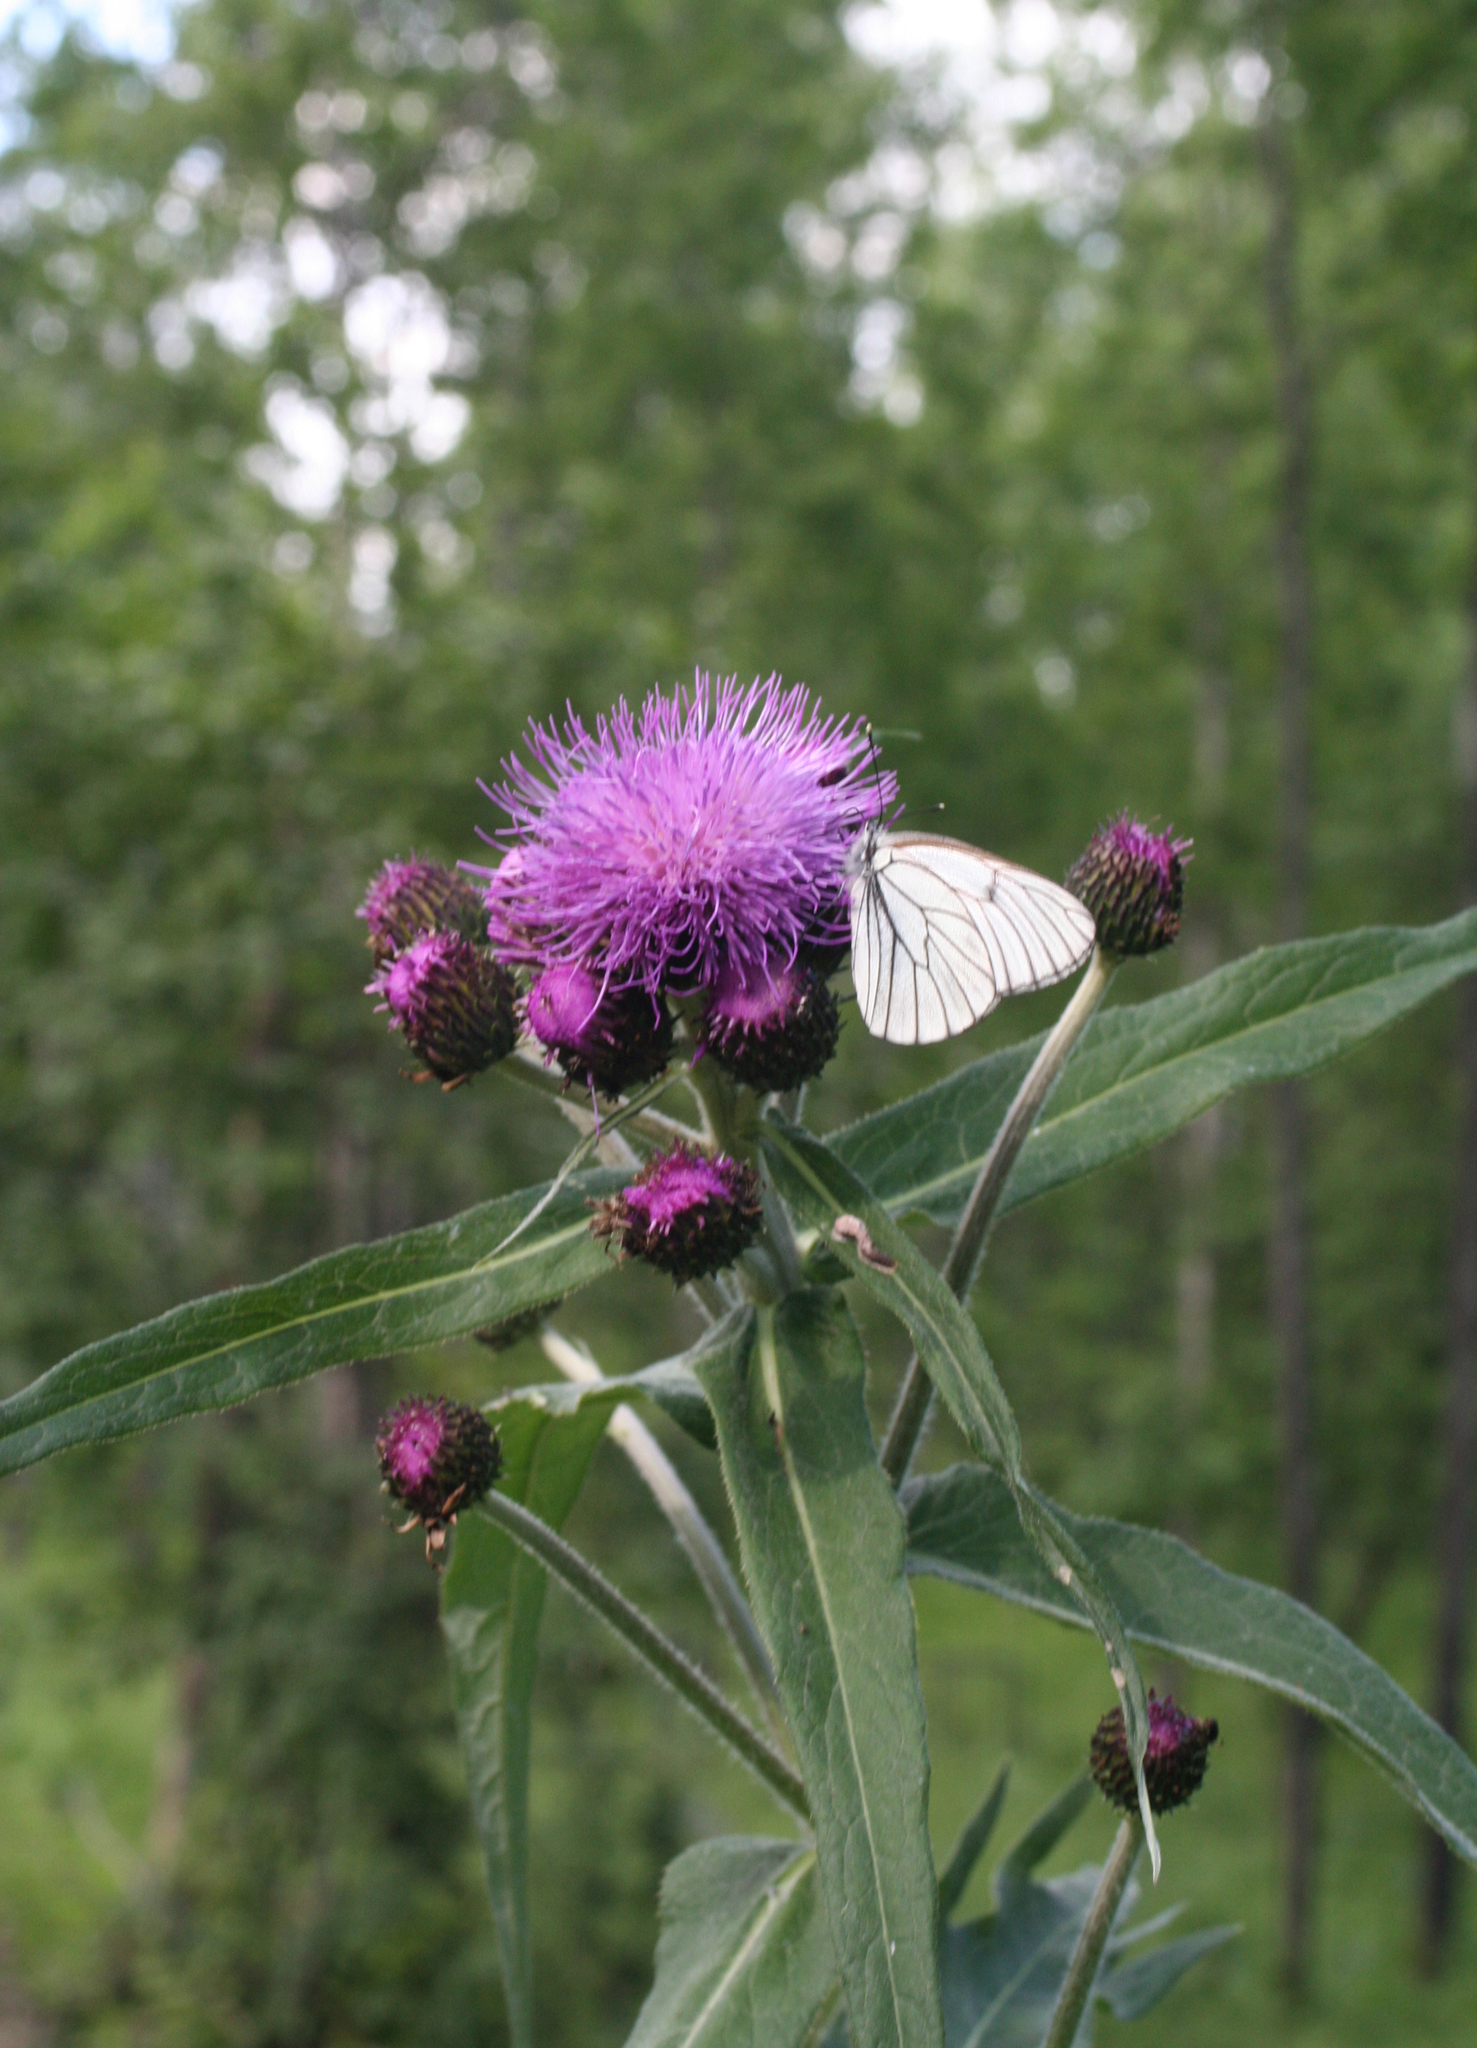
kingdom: Plantae
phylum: Tracheophyta
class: Magnoliopsida
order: Asterales
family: Asteraceae
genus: Cirsium
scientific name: Cirsium heterophyllum
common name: Melancholy thistle
